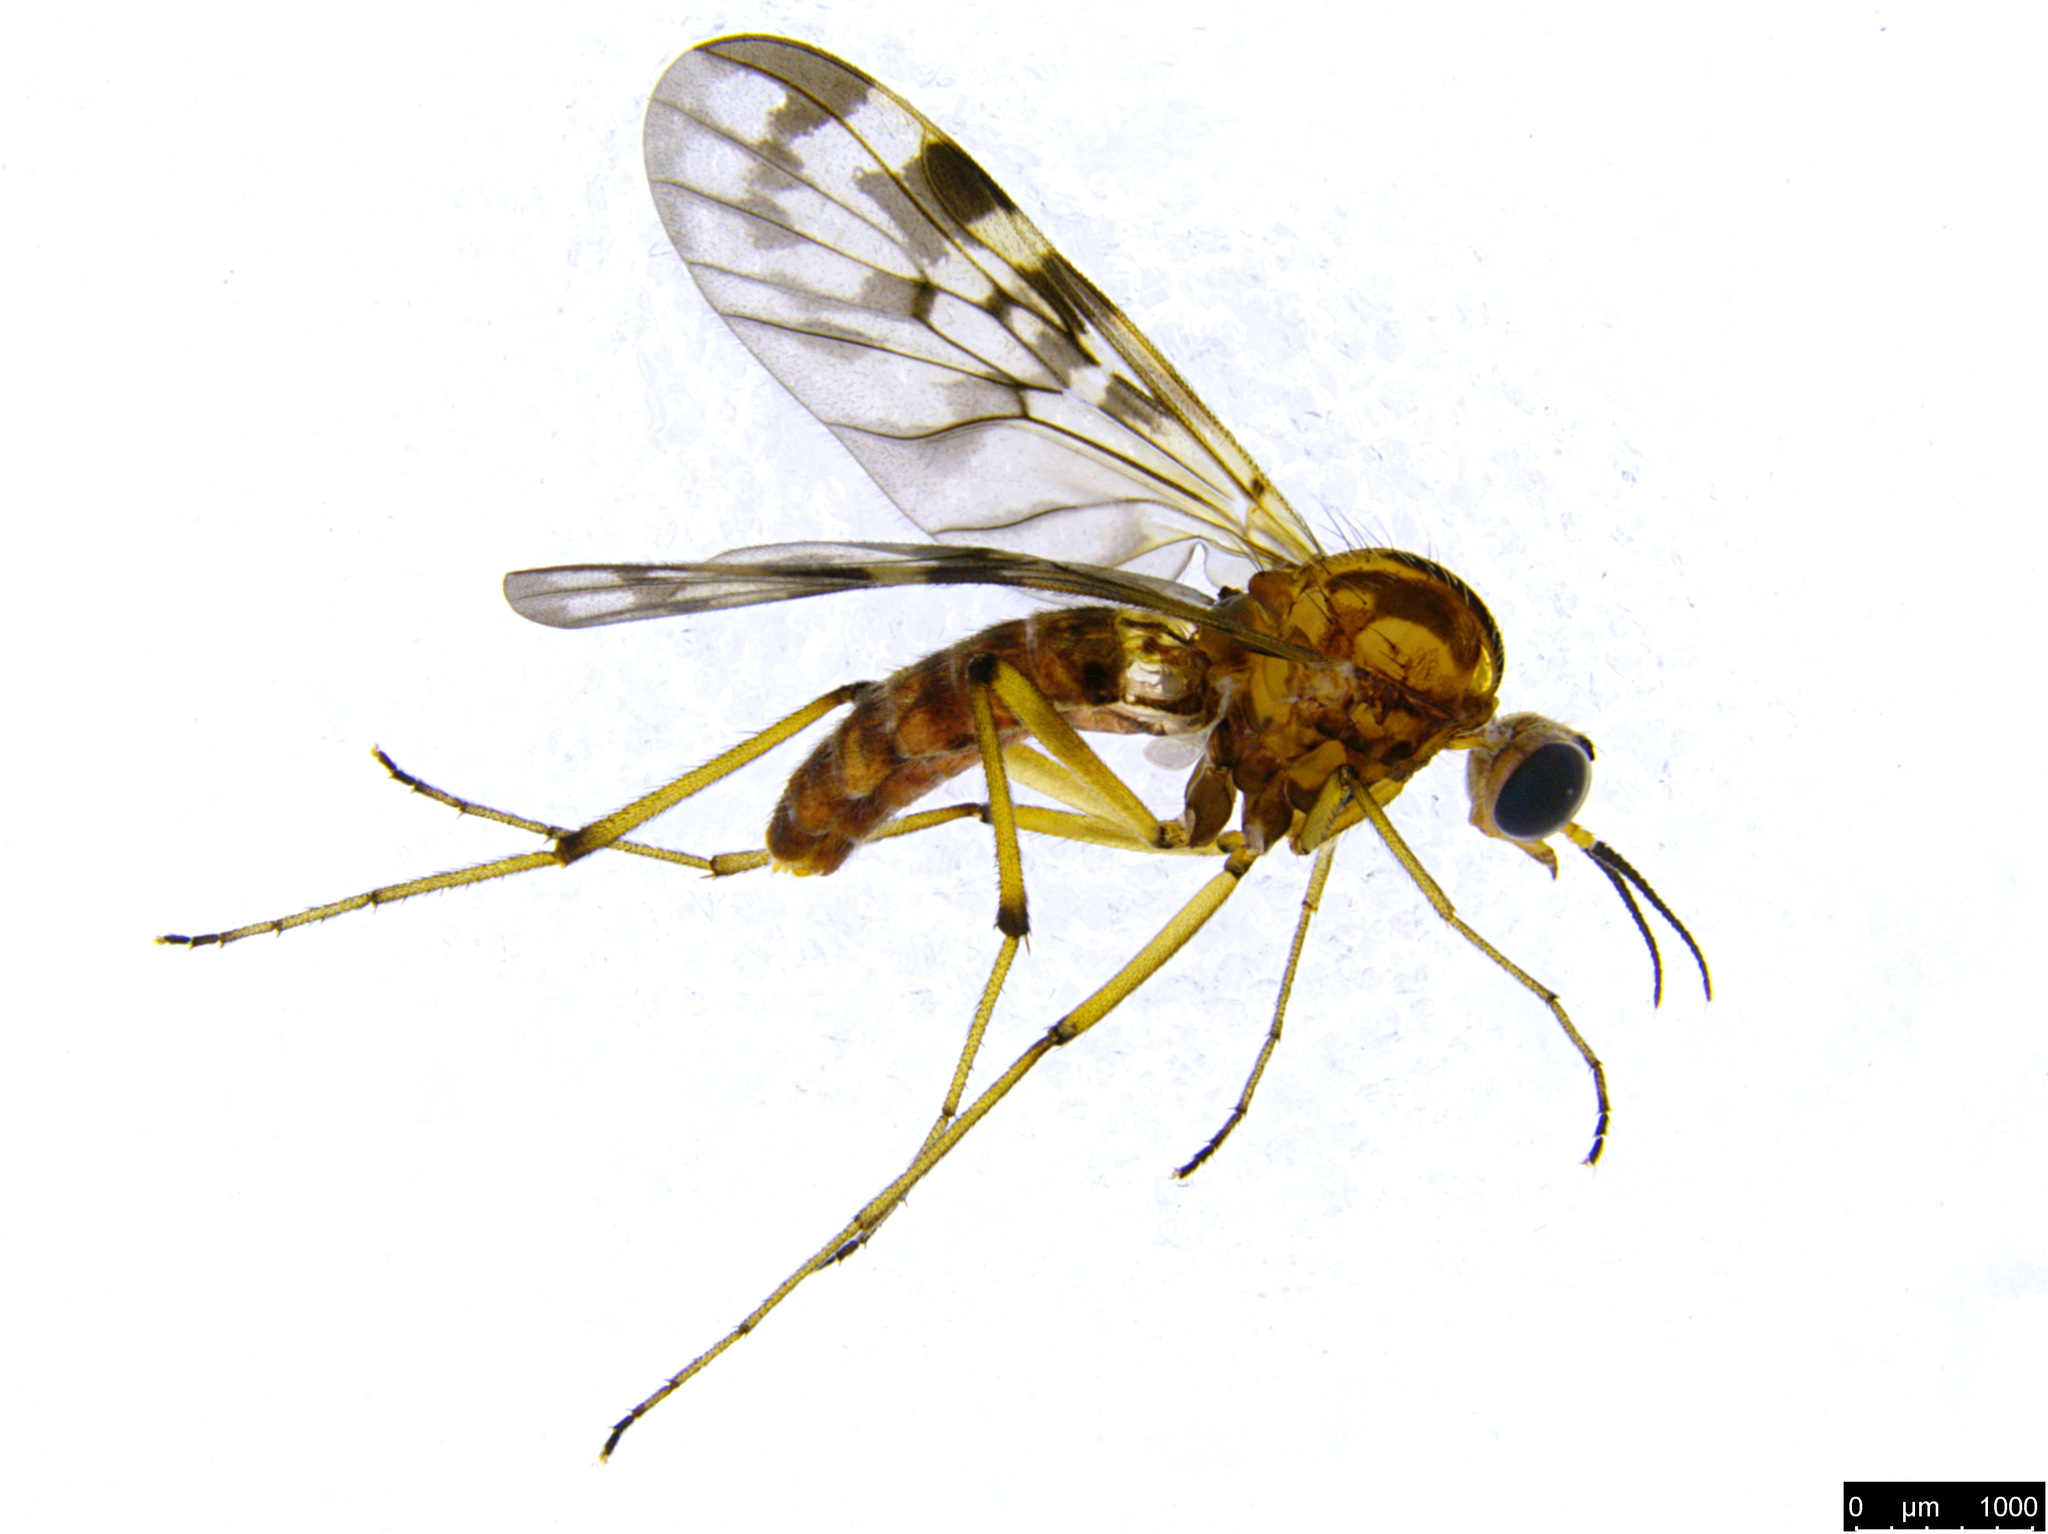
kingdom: Animalia
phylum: Arthropoda
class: Insecta
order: Diptera
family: Anisopodidae
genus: Sylvicola
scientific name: Sylvicola dubius
